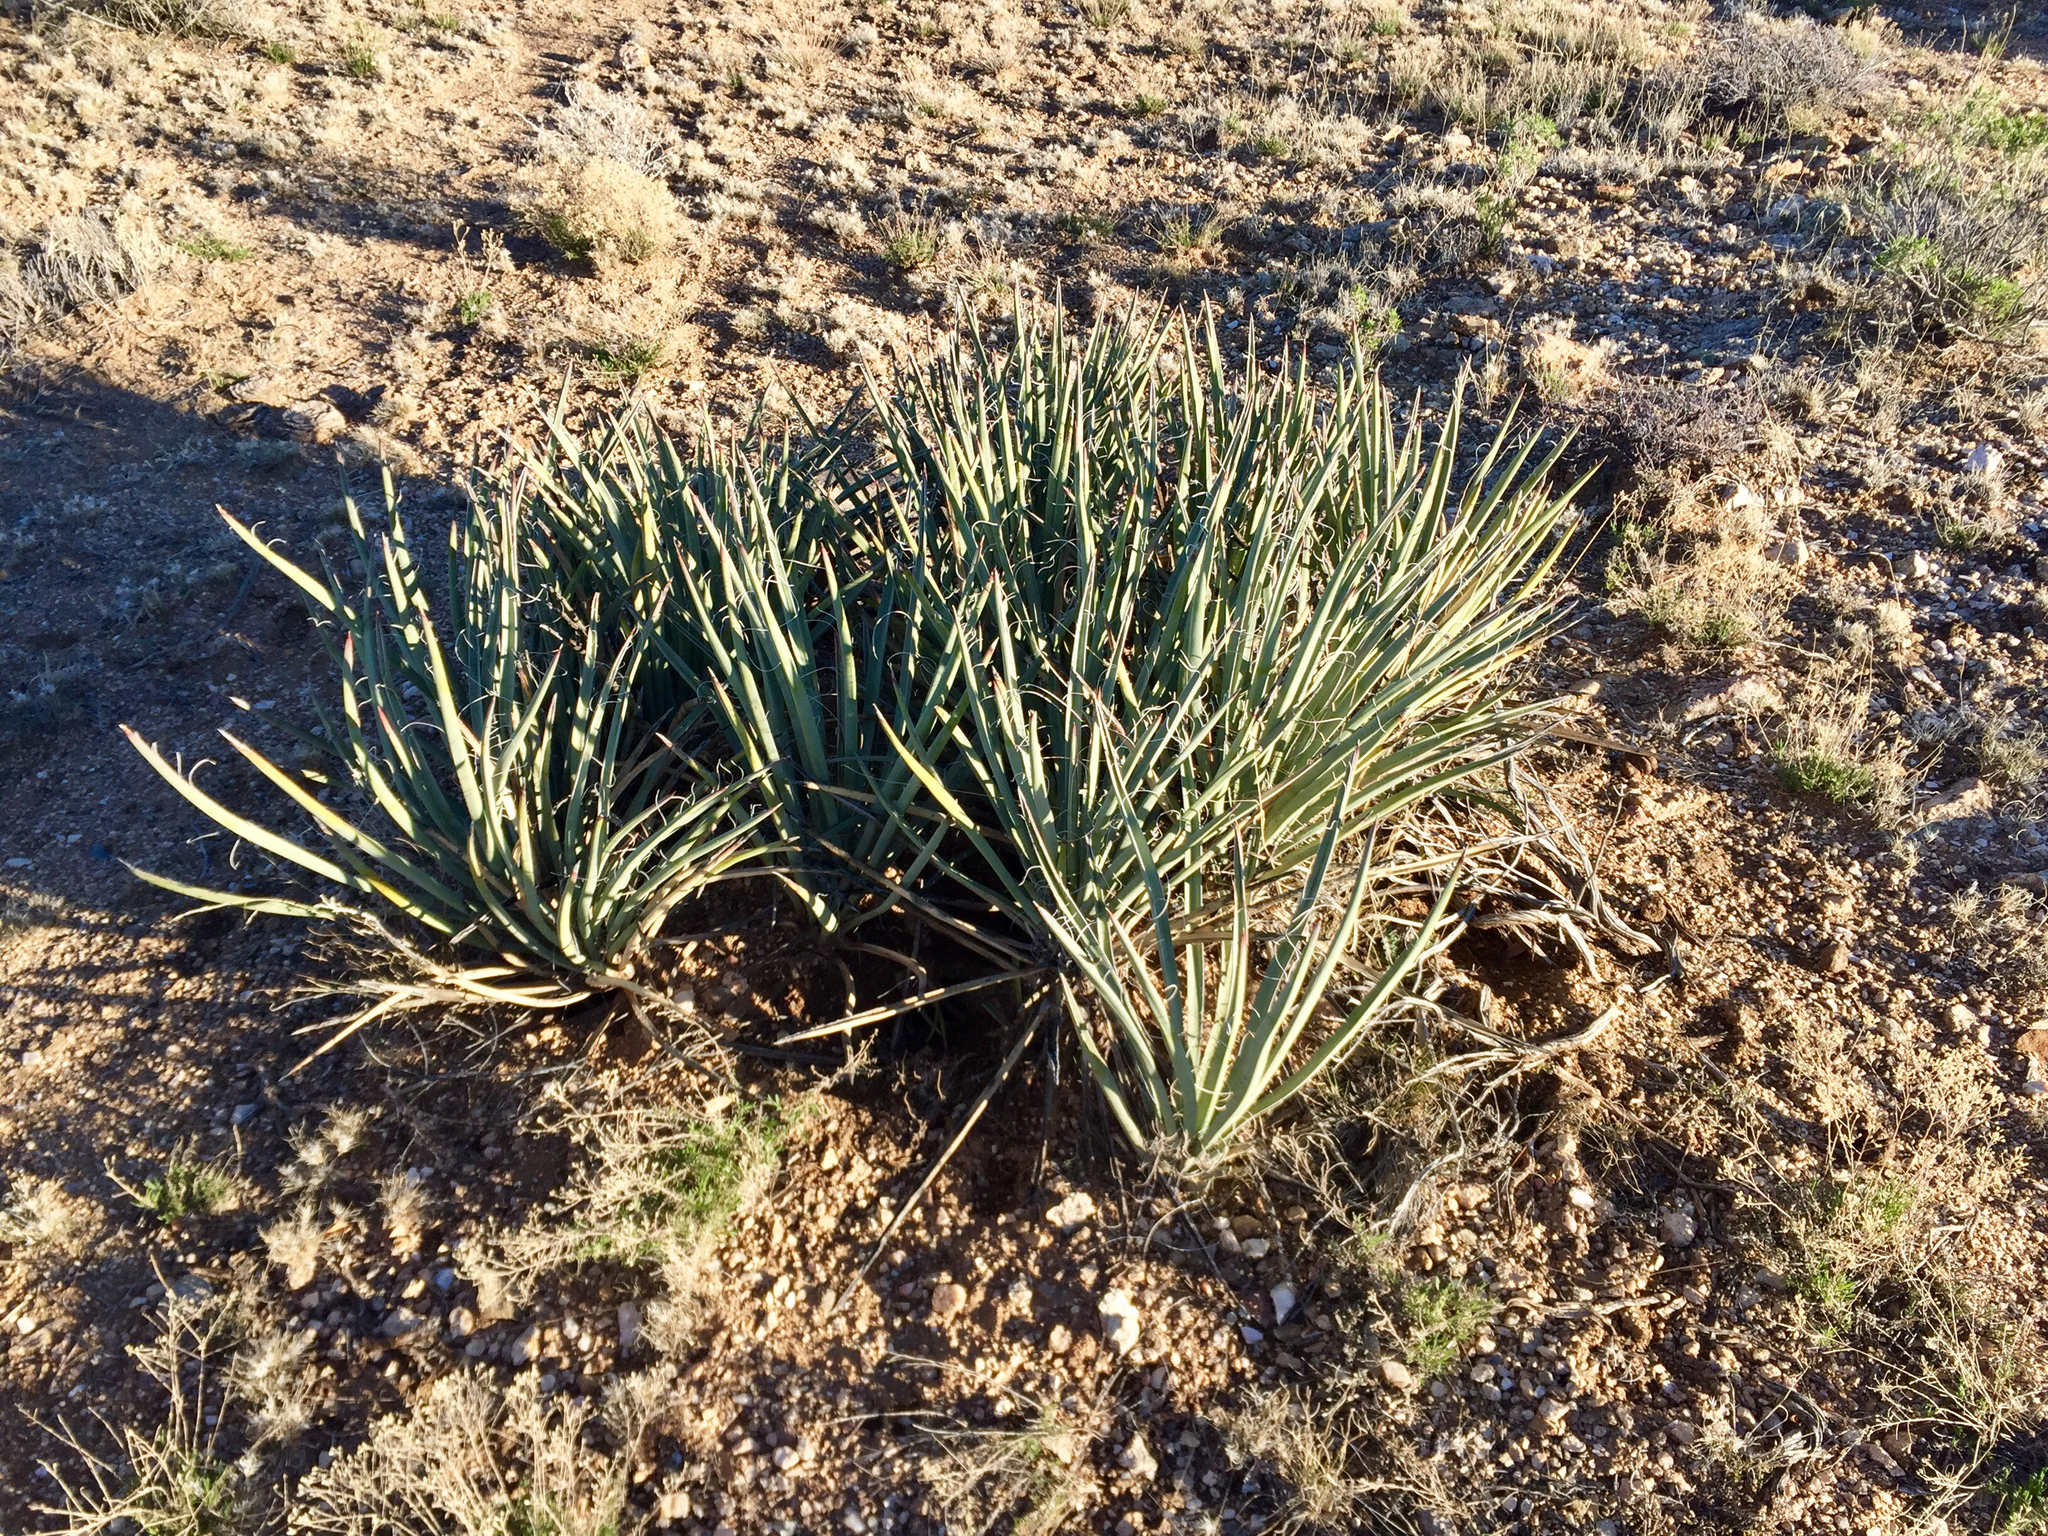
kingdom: Plantae
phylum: Tracheophyta
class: Liliopsida
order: Asparagales
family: Asparagaceae
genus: Yucca
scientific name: Yucca baccata
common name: Banana yucca
